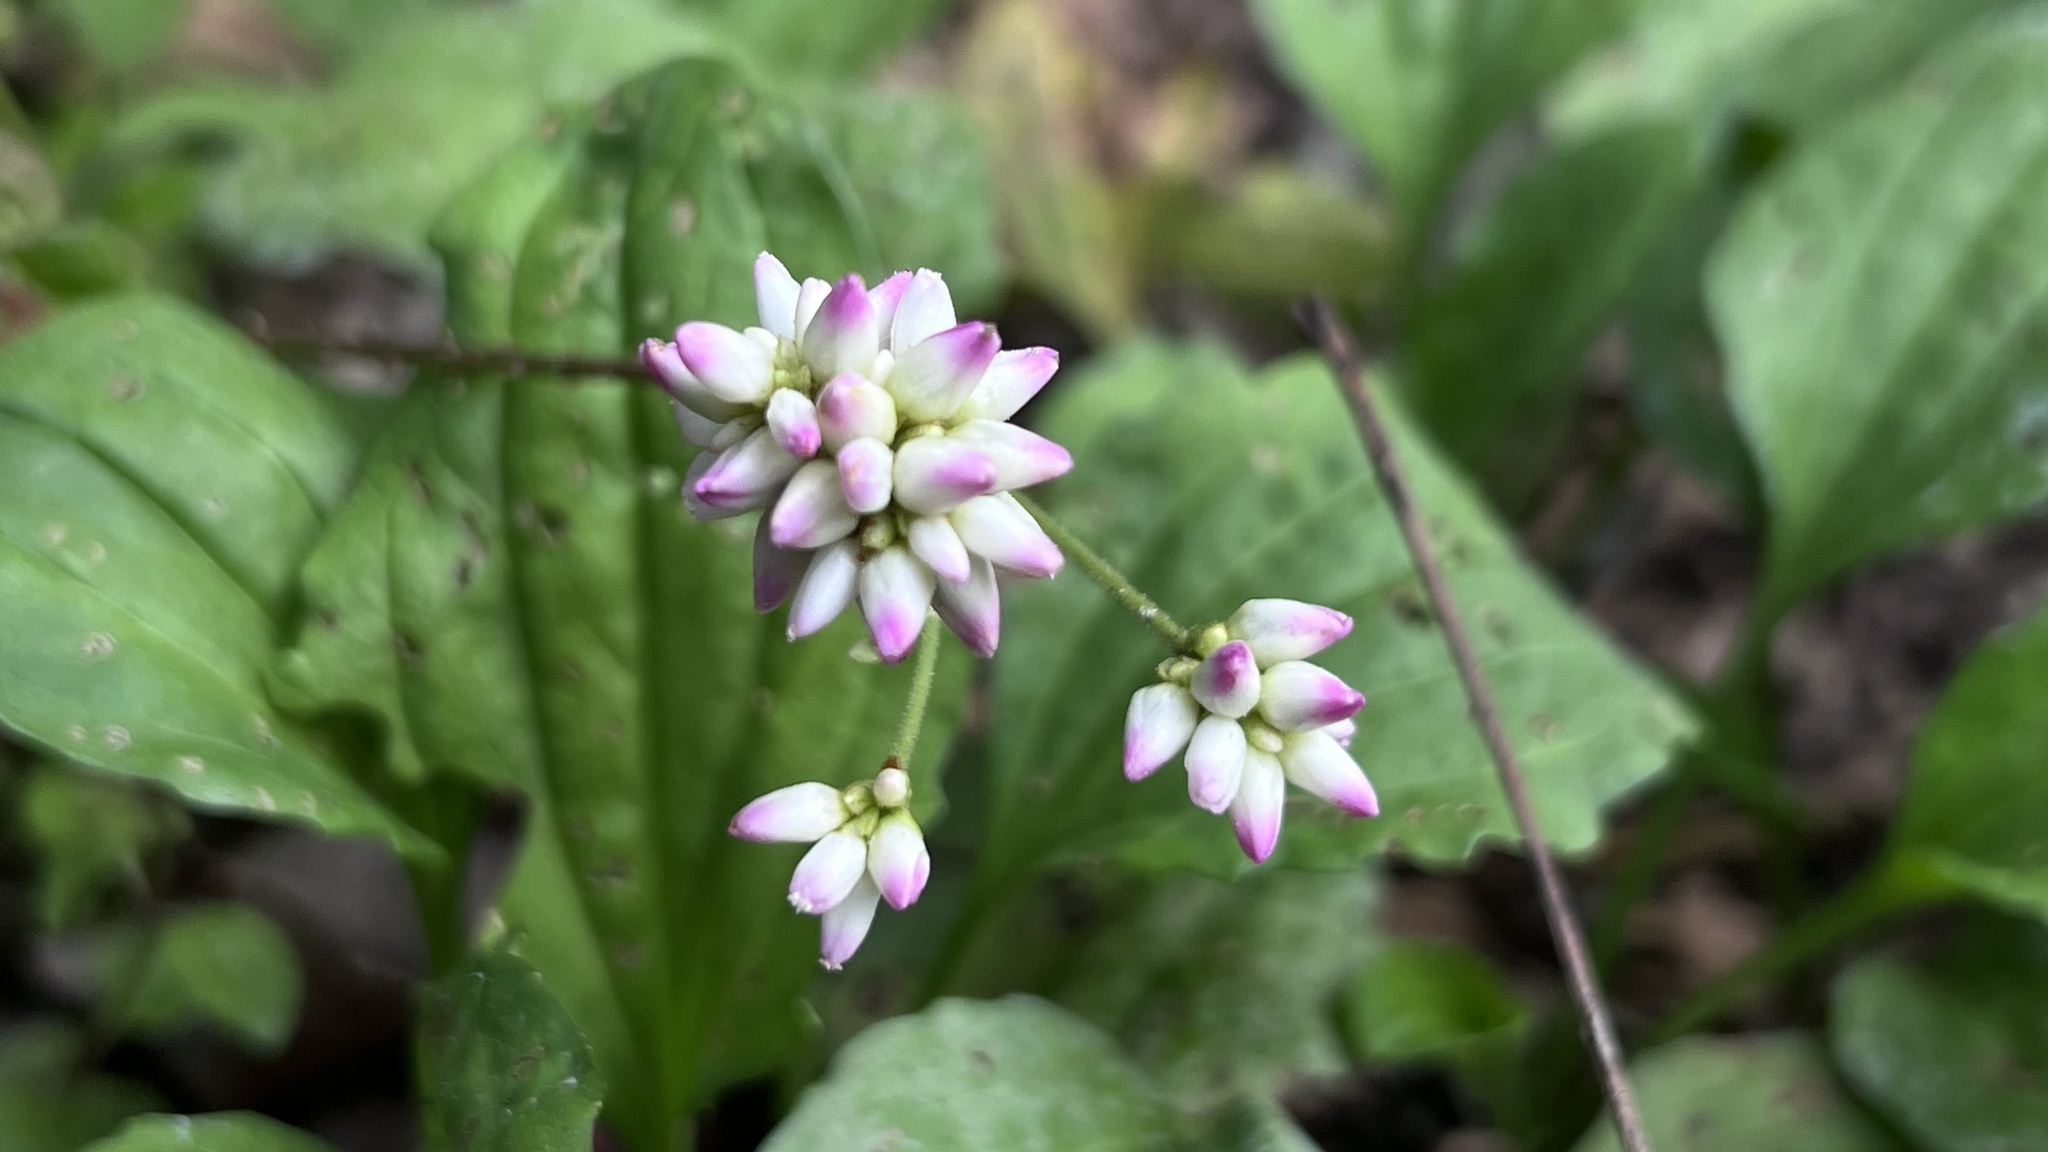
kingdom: Plantae
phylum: Tracheophyta
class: Magnoliopsida
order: Caryophyllales
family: Polygonaceae
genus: Persicaria
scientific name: Persicaria senticosa
